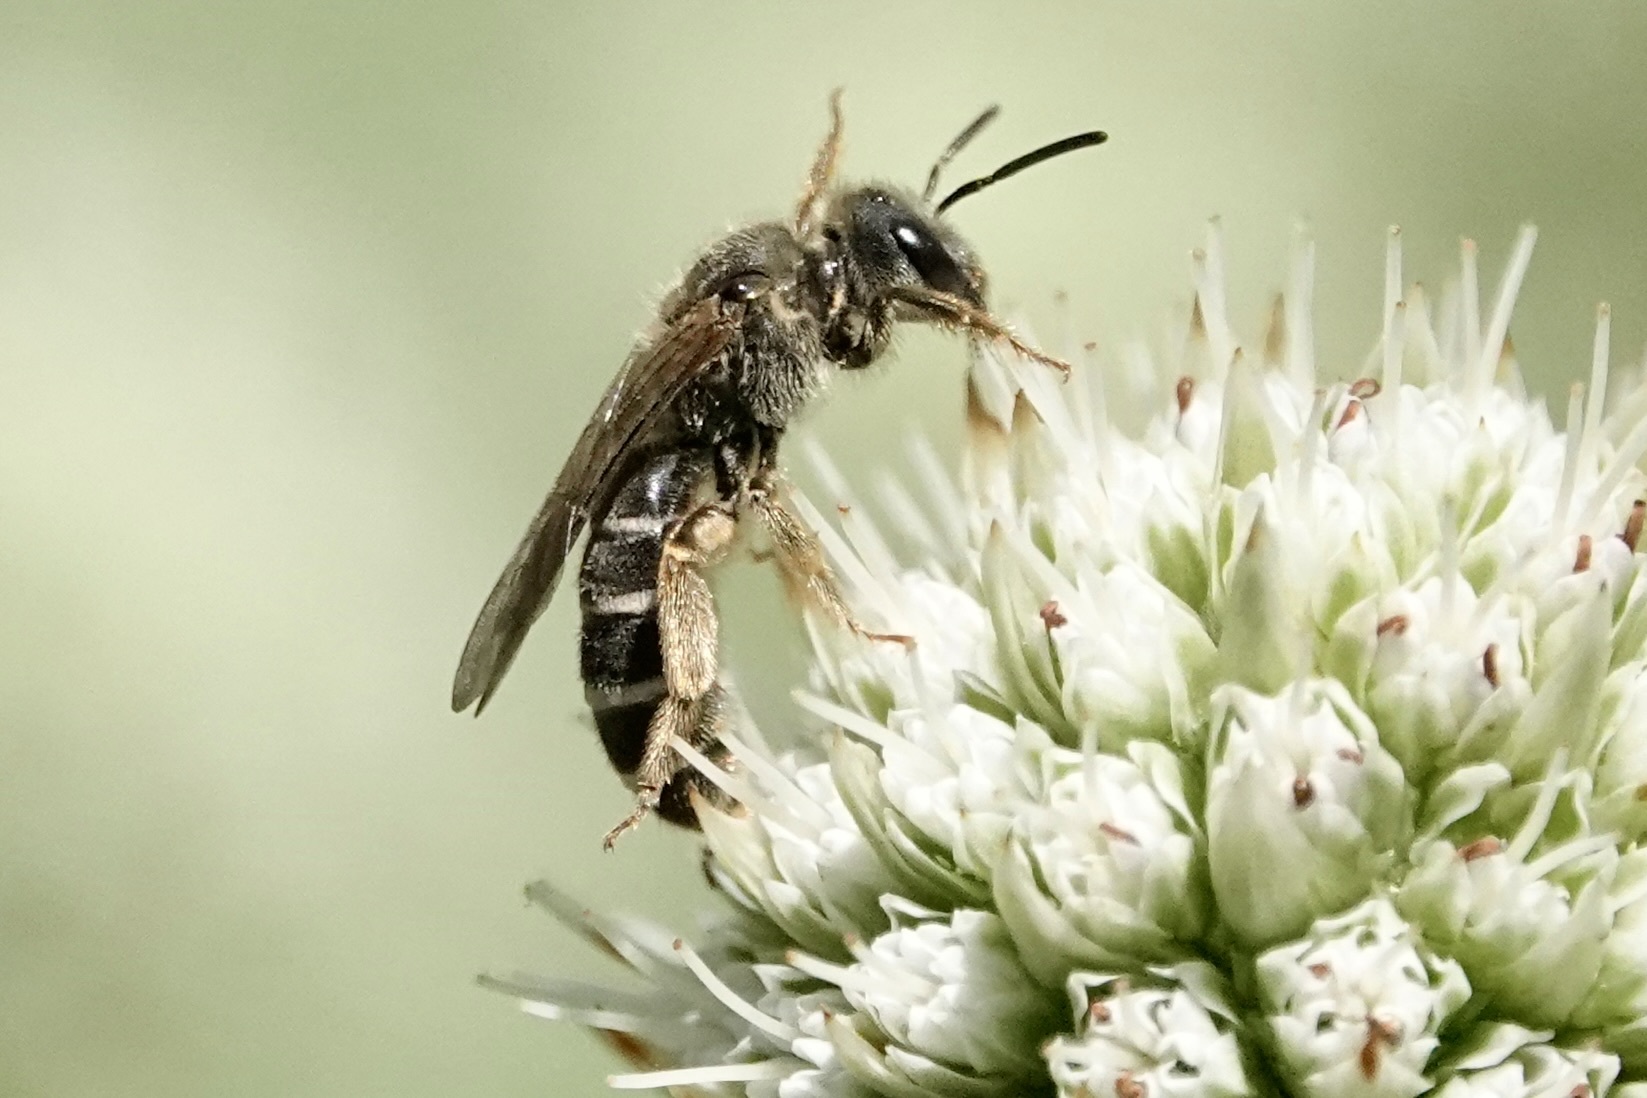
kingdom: Animalia
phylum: Arthropoda
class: Insecta
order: Hymenoptera
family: Halictidae
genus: Halictus
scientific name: Halictus rubicundus
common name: Orange-legged furrow bee
